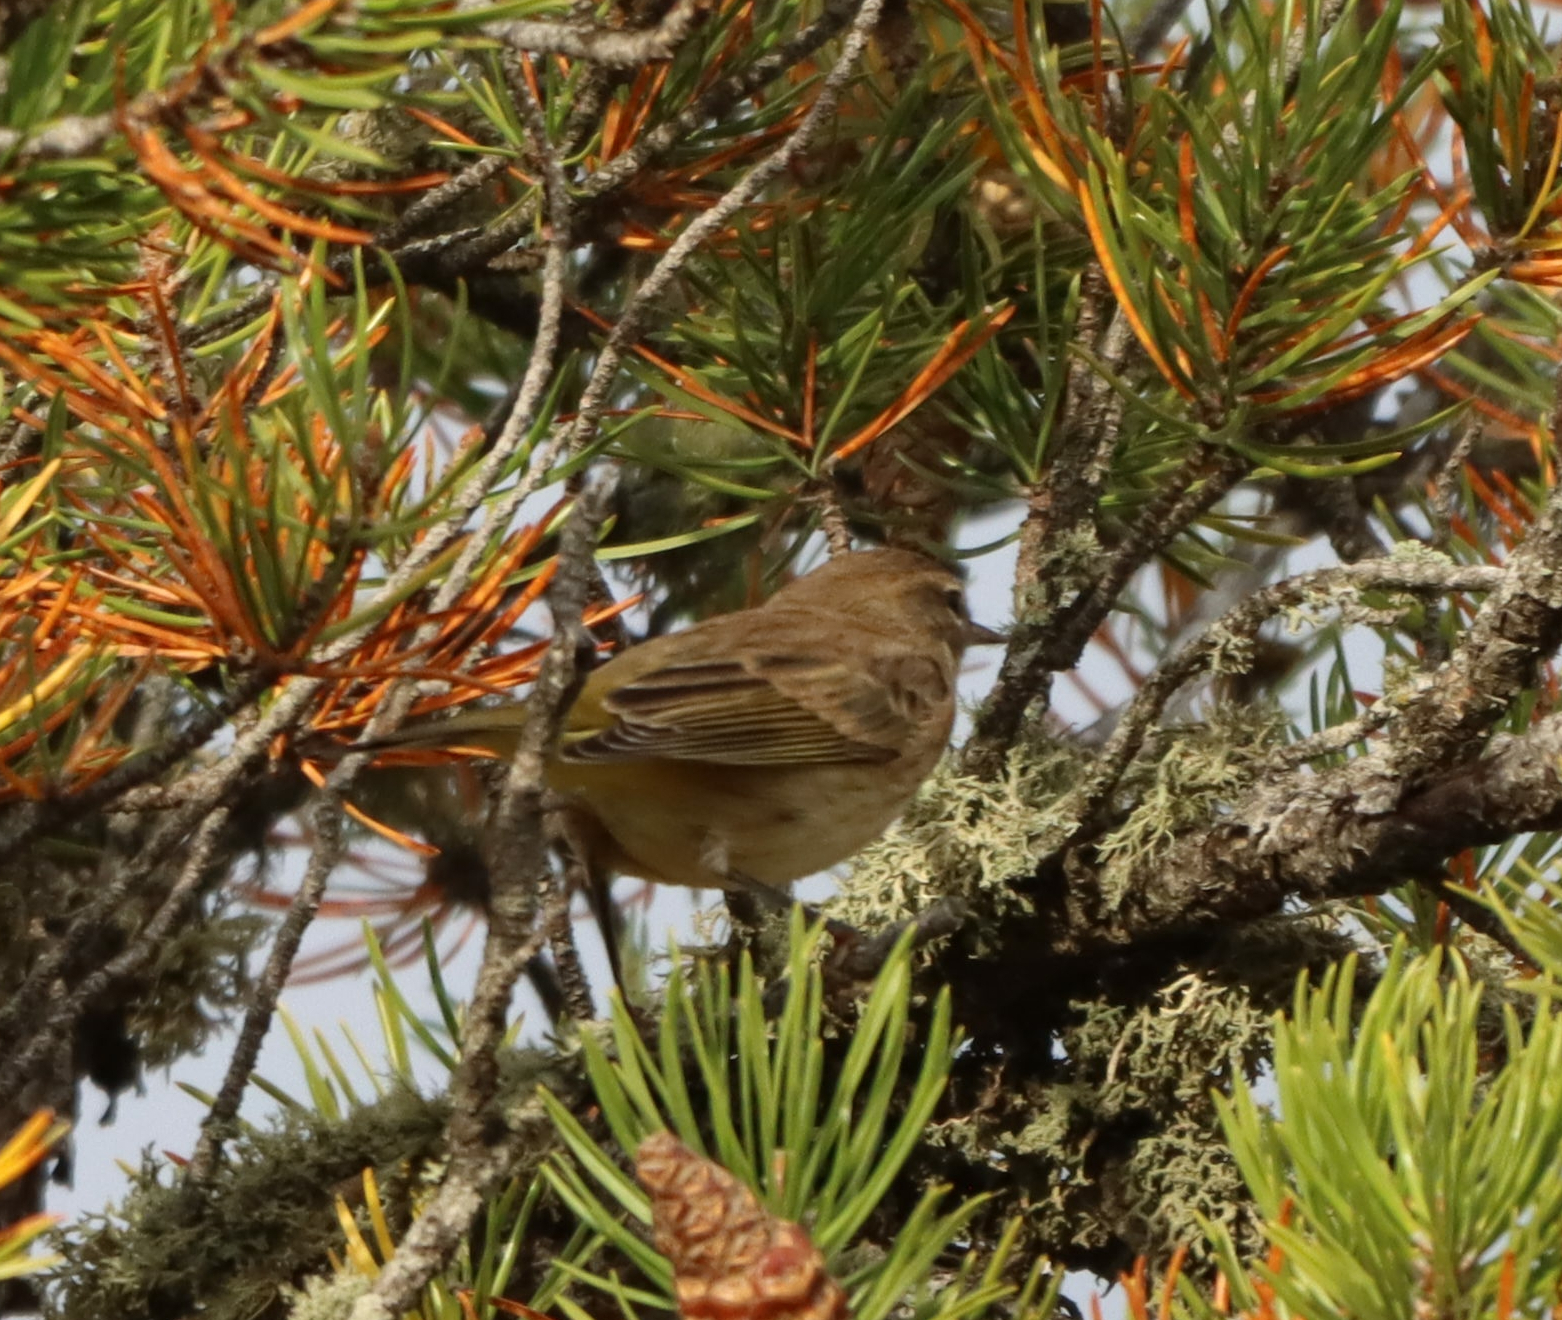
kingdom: Animalia
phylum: Chordata
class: Aves
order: Passeriformes
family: Parulidae
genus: Setophaga
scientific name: Setophaga palmarum
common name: Palm warbler
